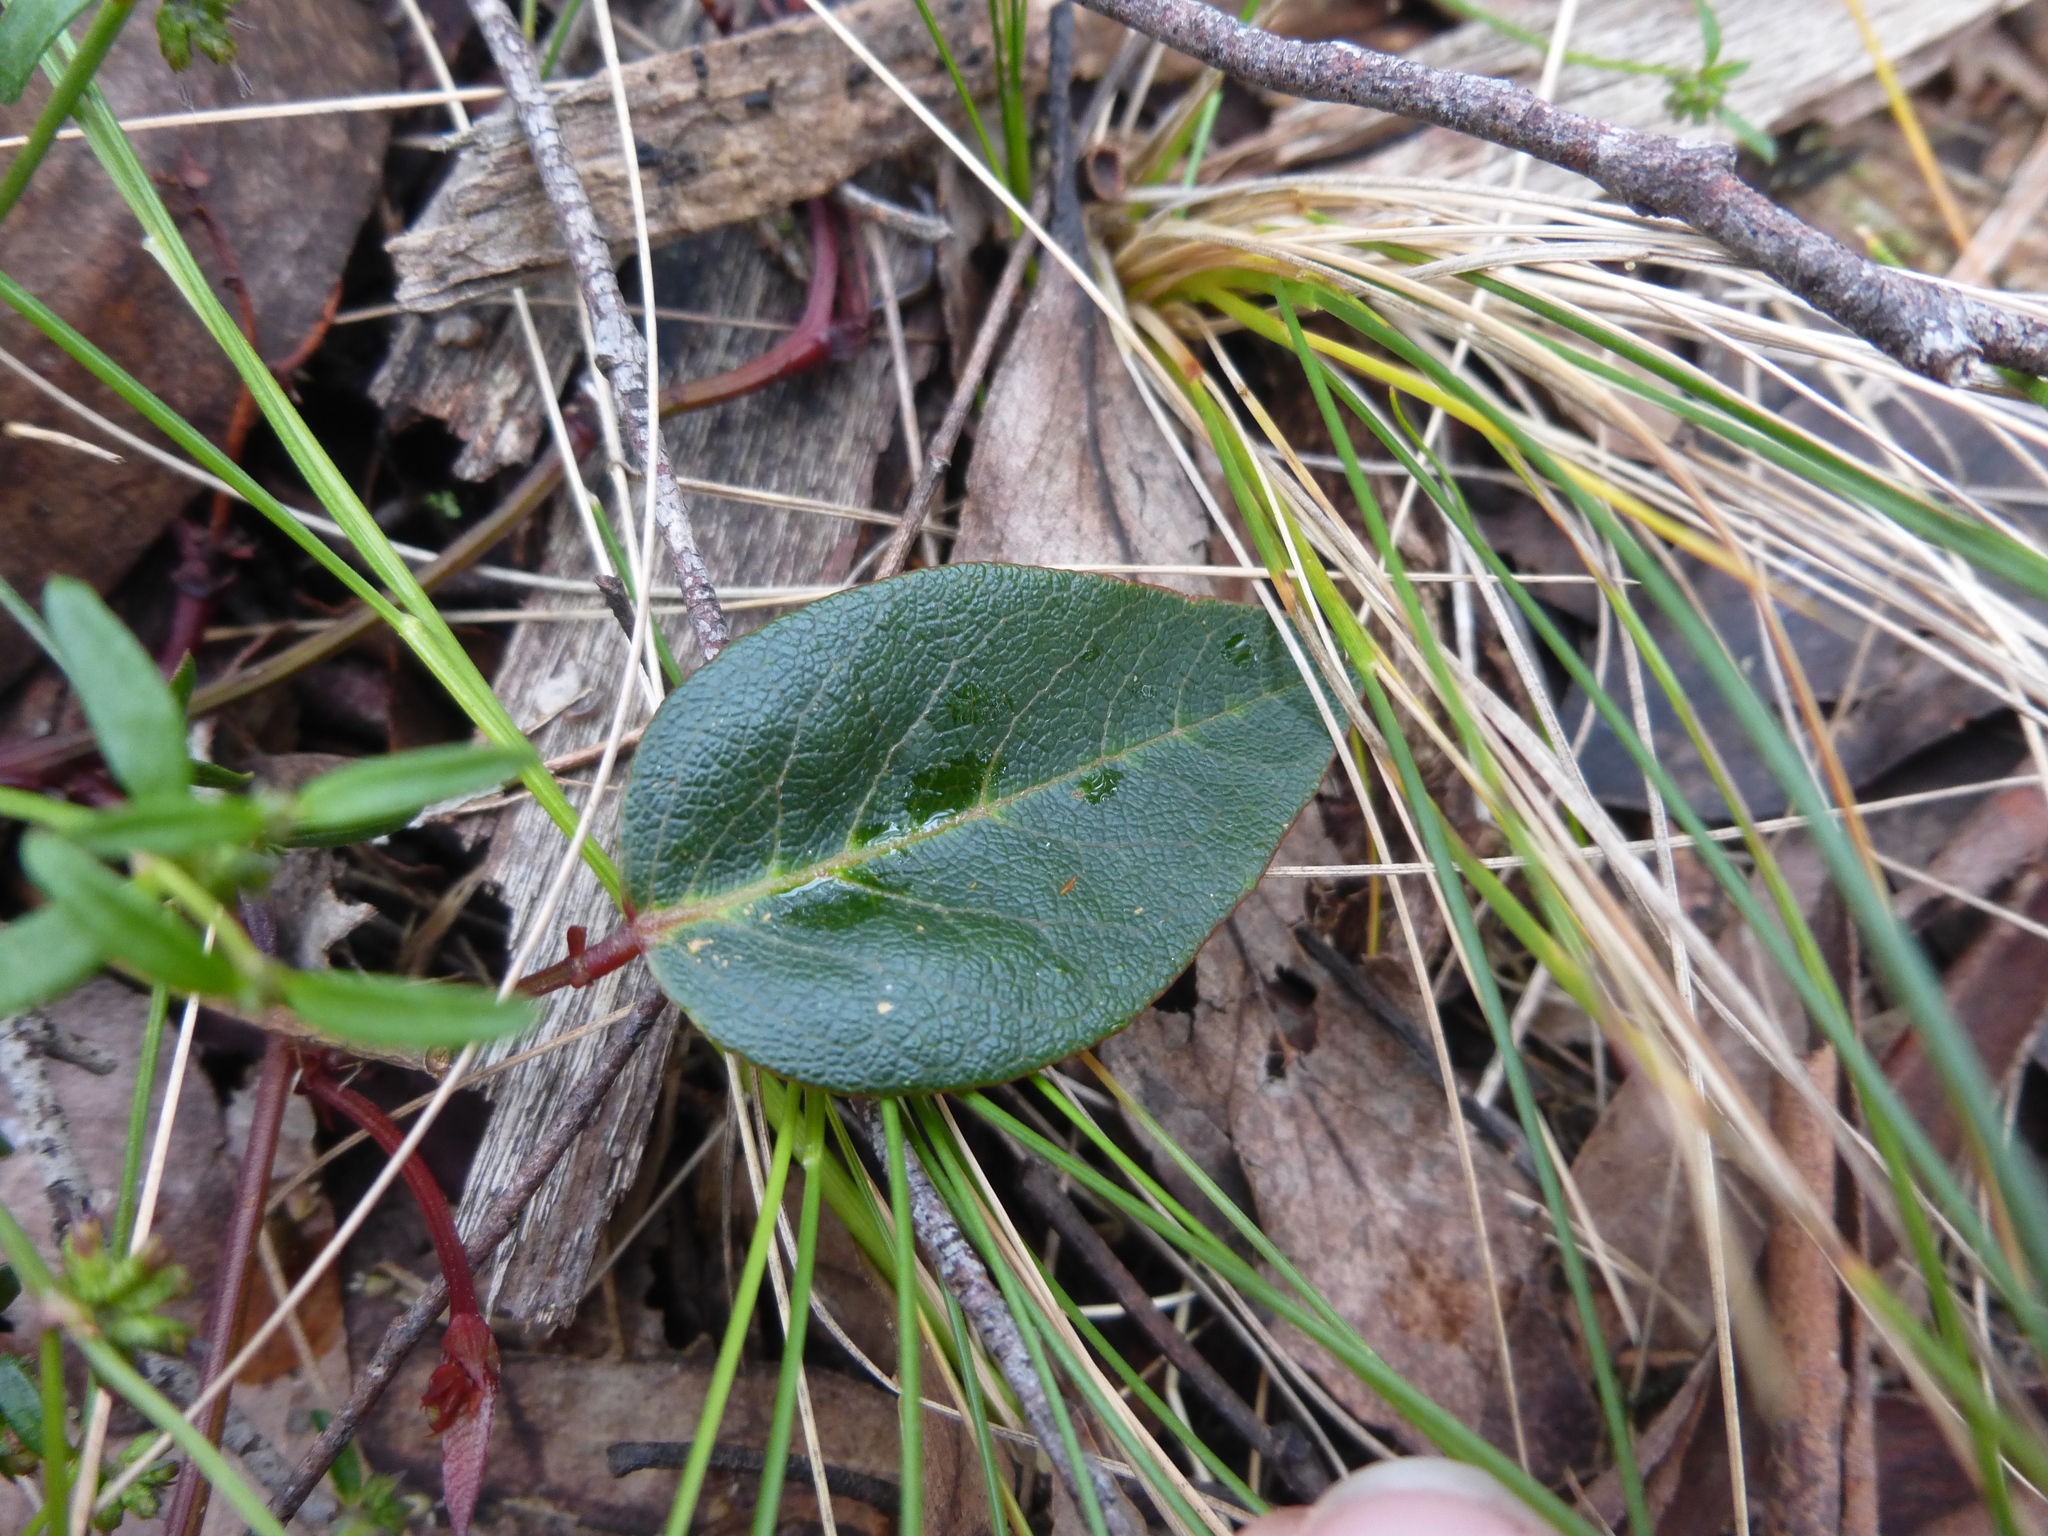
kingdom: Plantae
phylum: Tracheophyta
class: Magnoliopsida
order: Fabales
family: Fabaceae
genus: Hardenbergia
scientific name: Hardenbergia violacea
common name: Coral-pea
